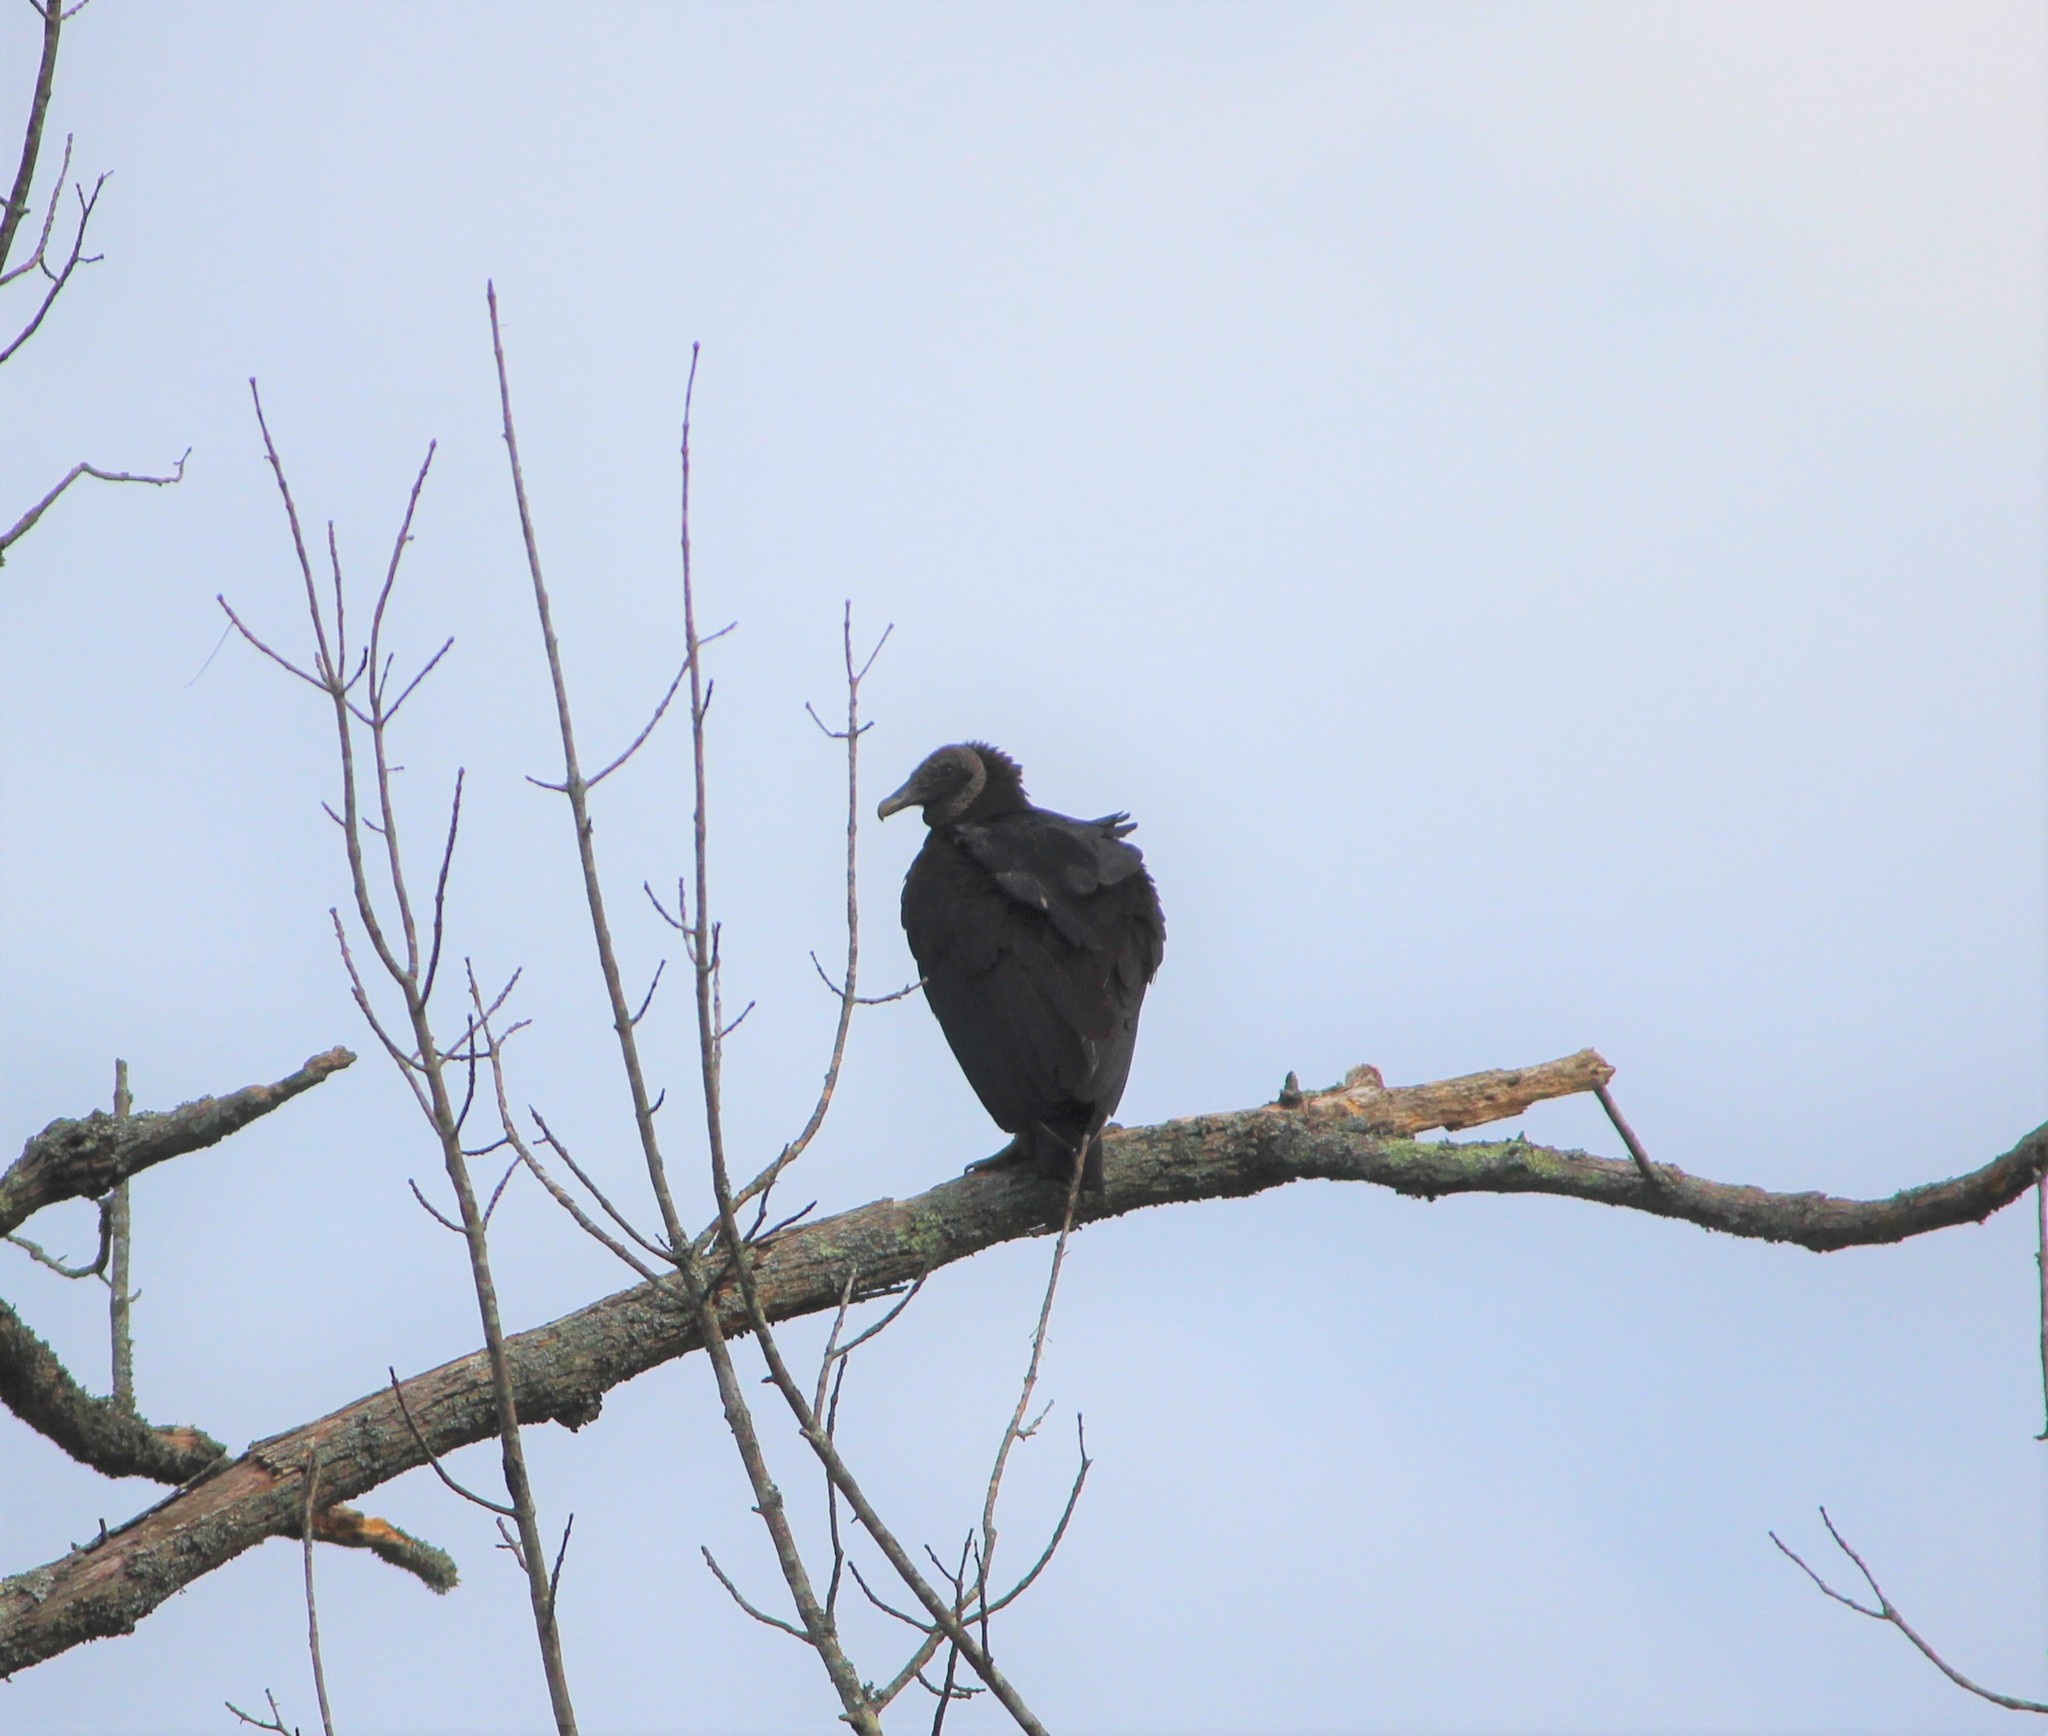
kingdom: Animalia
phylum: Chordata
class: Aves
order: Accipitriformes
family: Cathartidae
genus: Coragyps
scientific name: Coragyps atratus
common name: Black vulture
